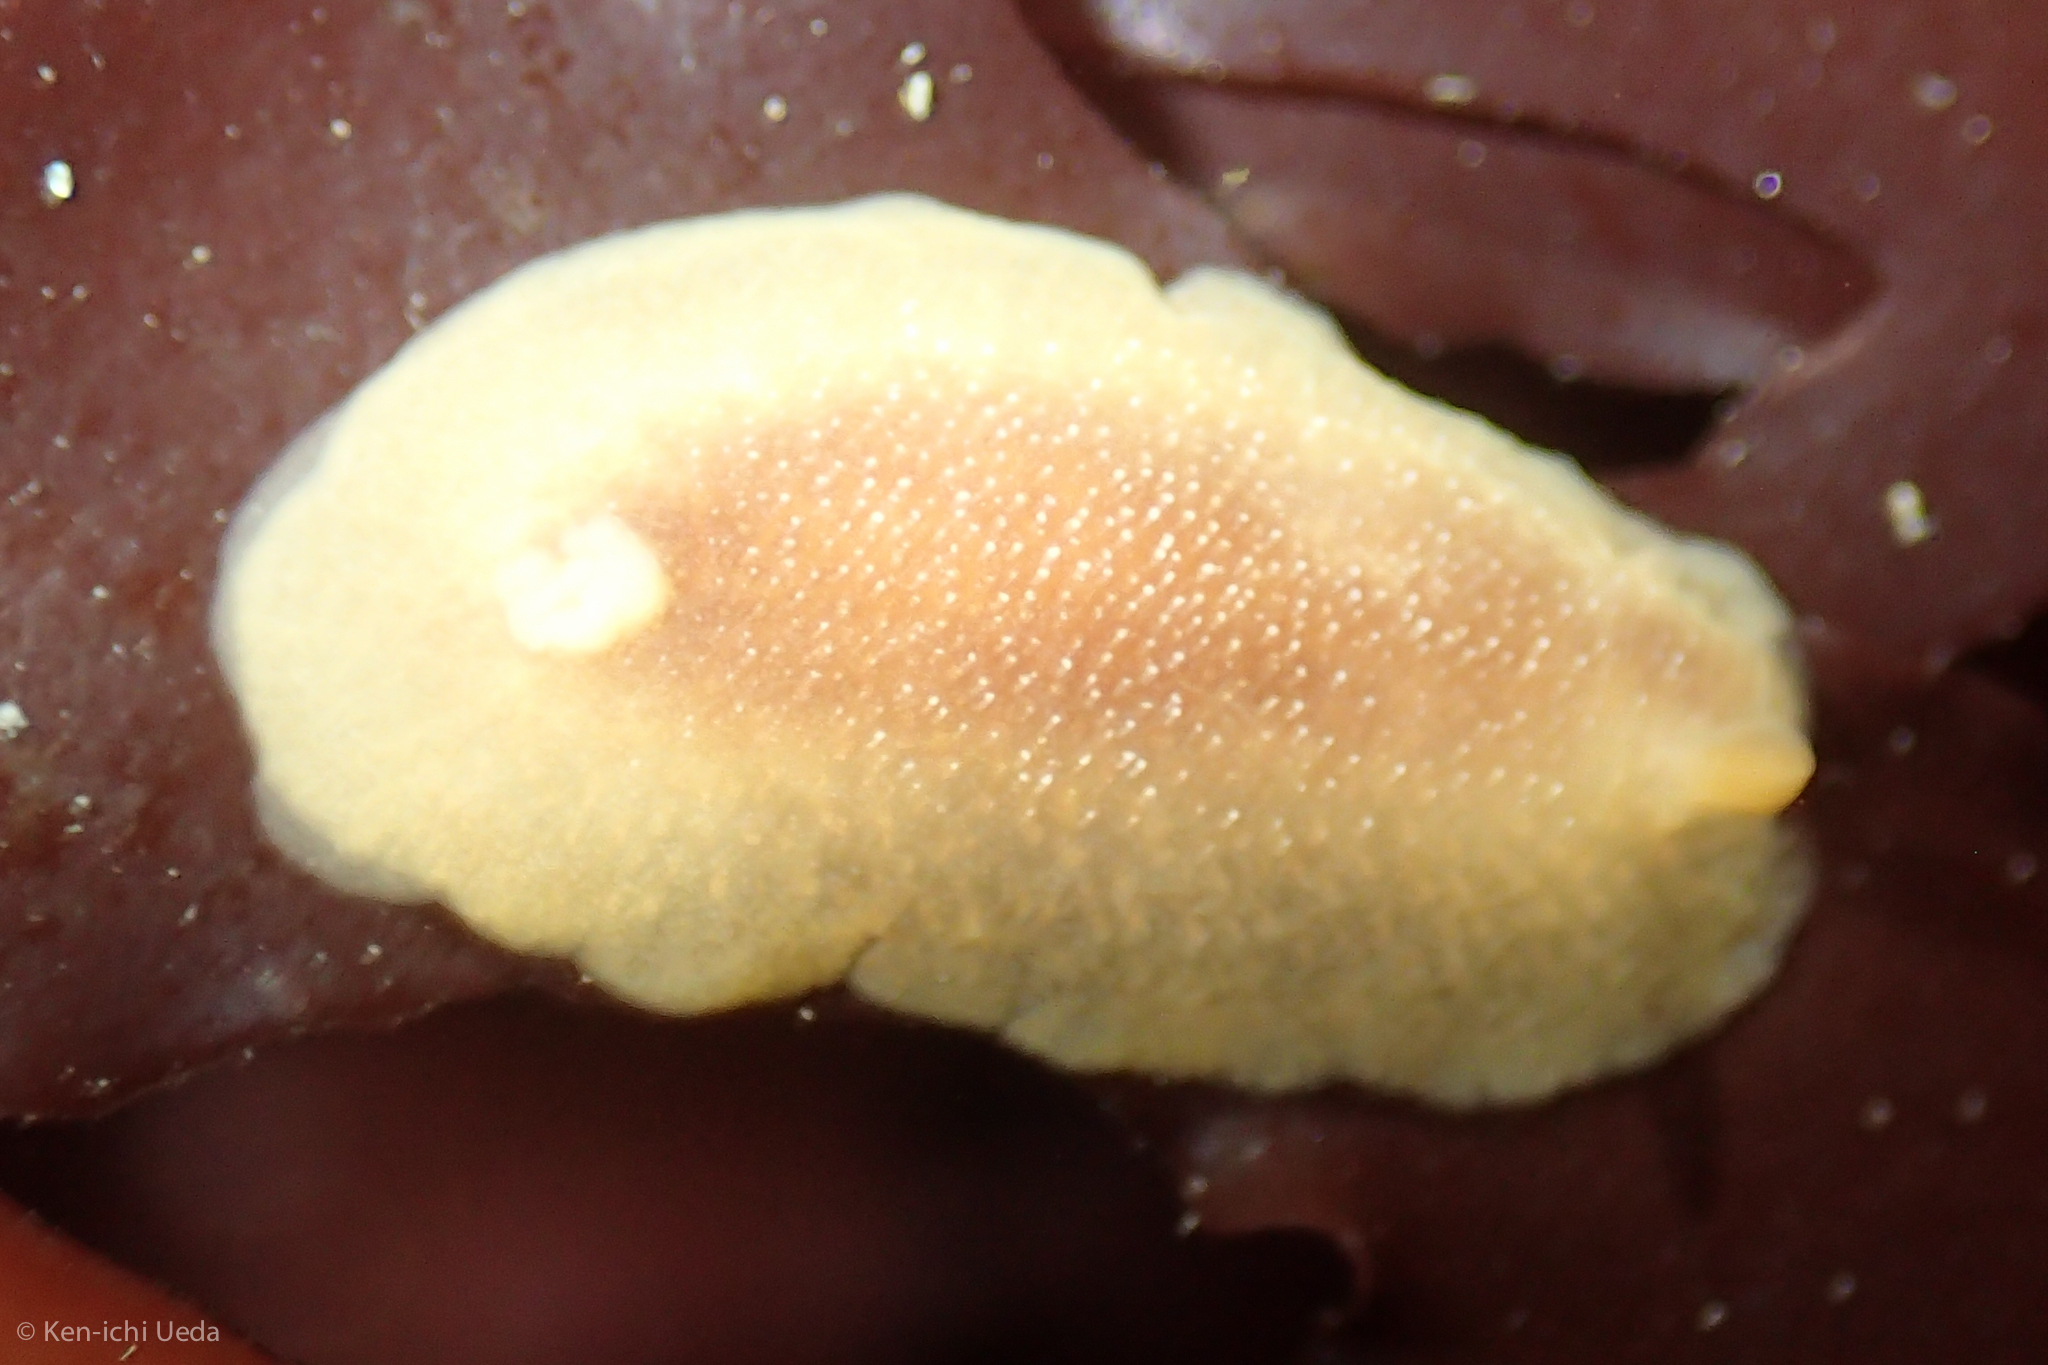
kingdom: Animalia
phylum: Mollusca
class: Gastropoda
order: Nudibranchia
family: Dendrodorididae
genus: Doriopsilla
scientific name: Doriopsilla albopunctata
